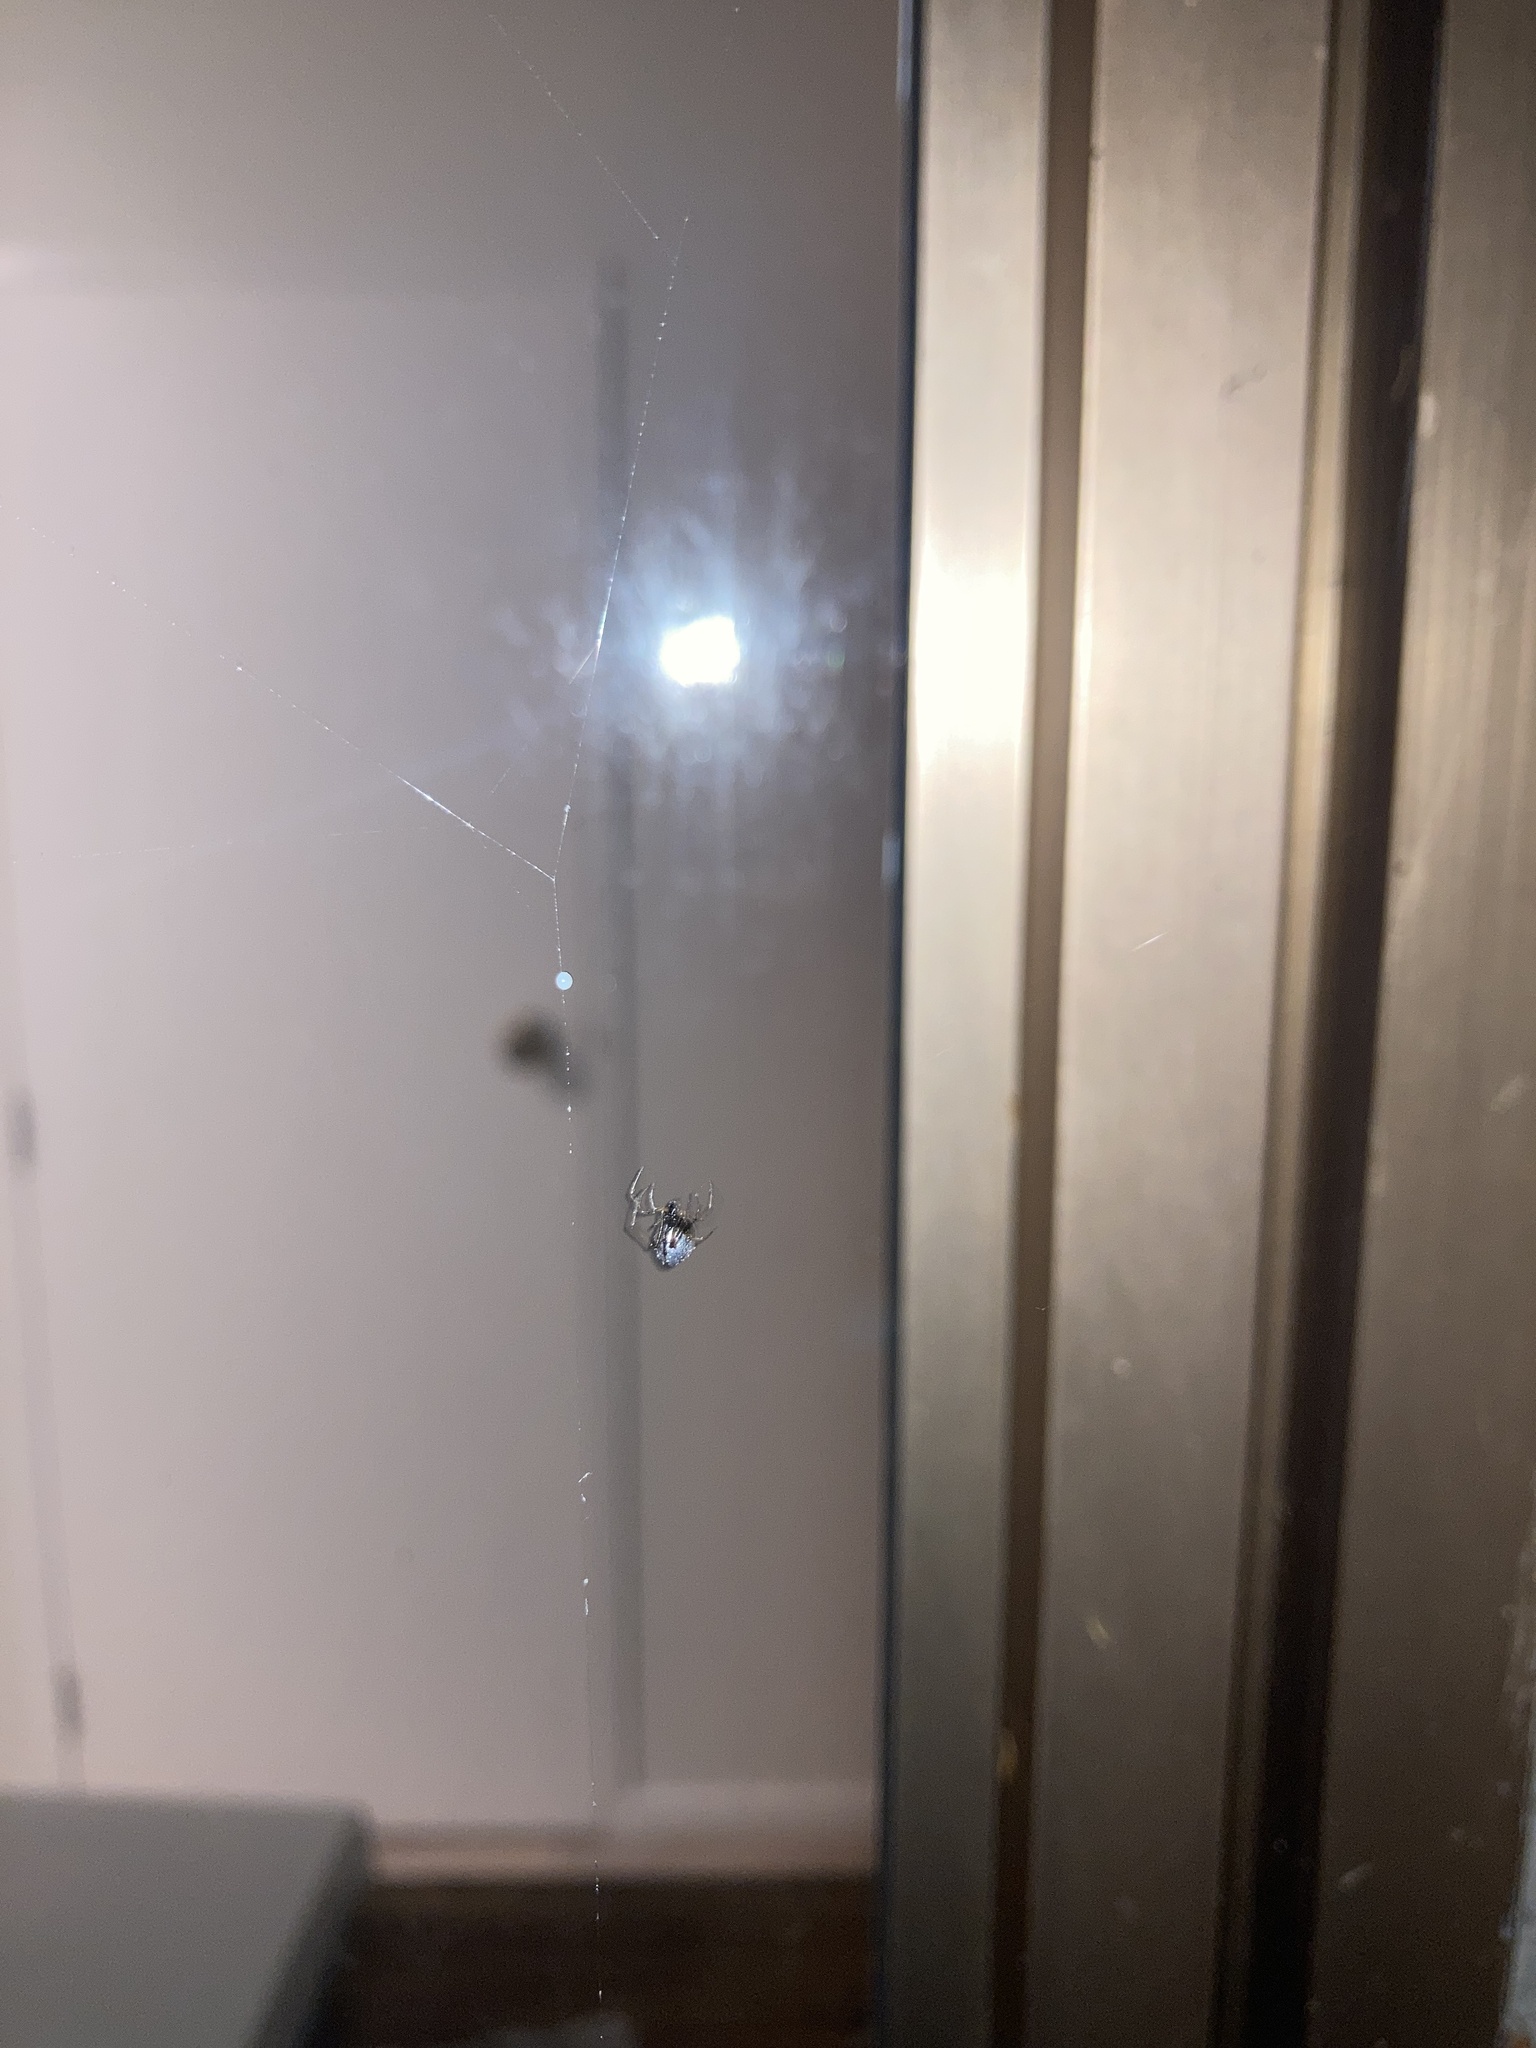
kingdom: Animalia
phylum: Arthropoda
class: Arachnida
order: Araneae
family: Theridiidae
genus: Argyrodes
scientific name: Argyrodes antipodianus
